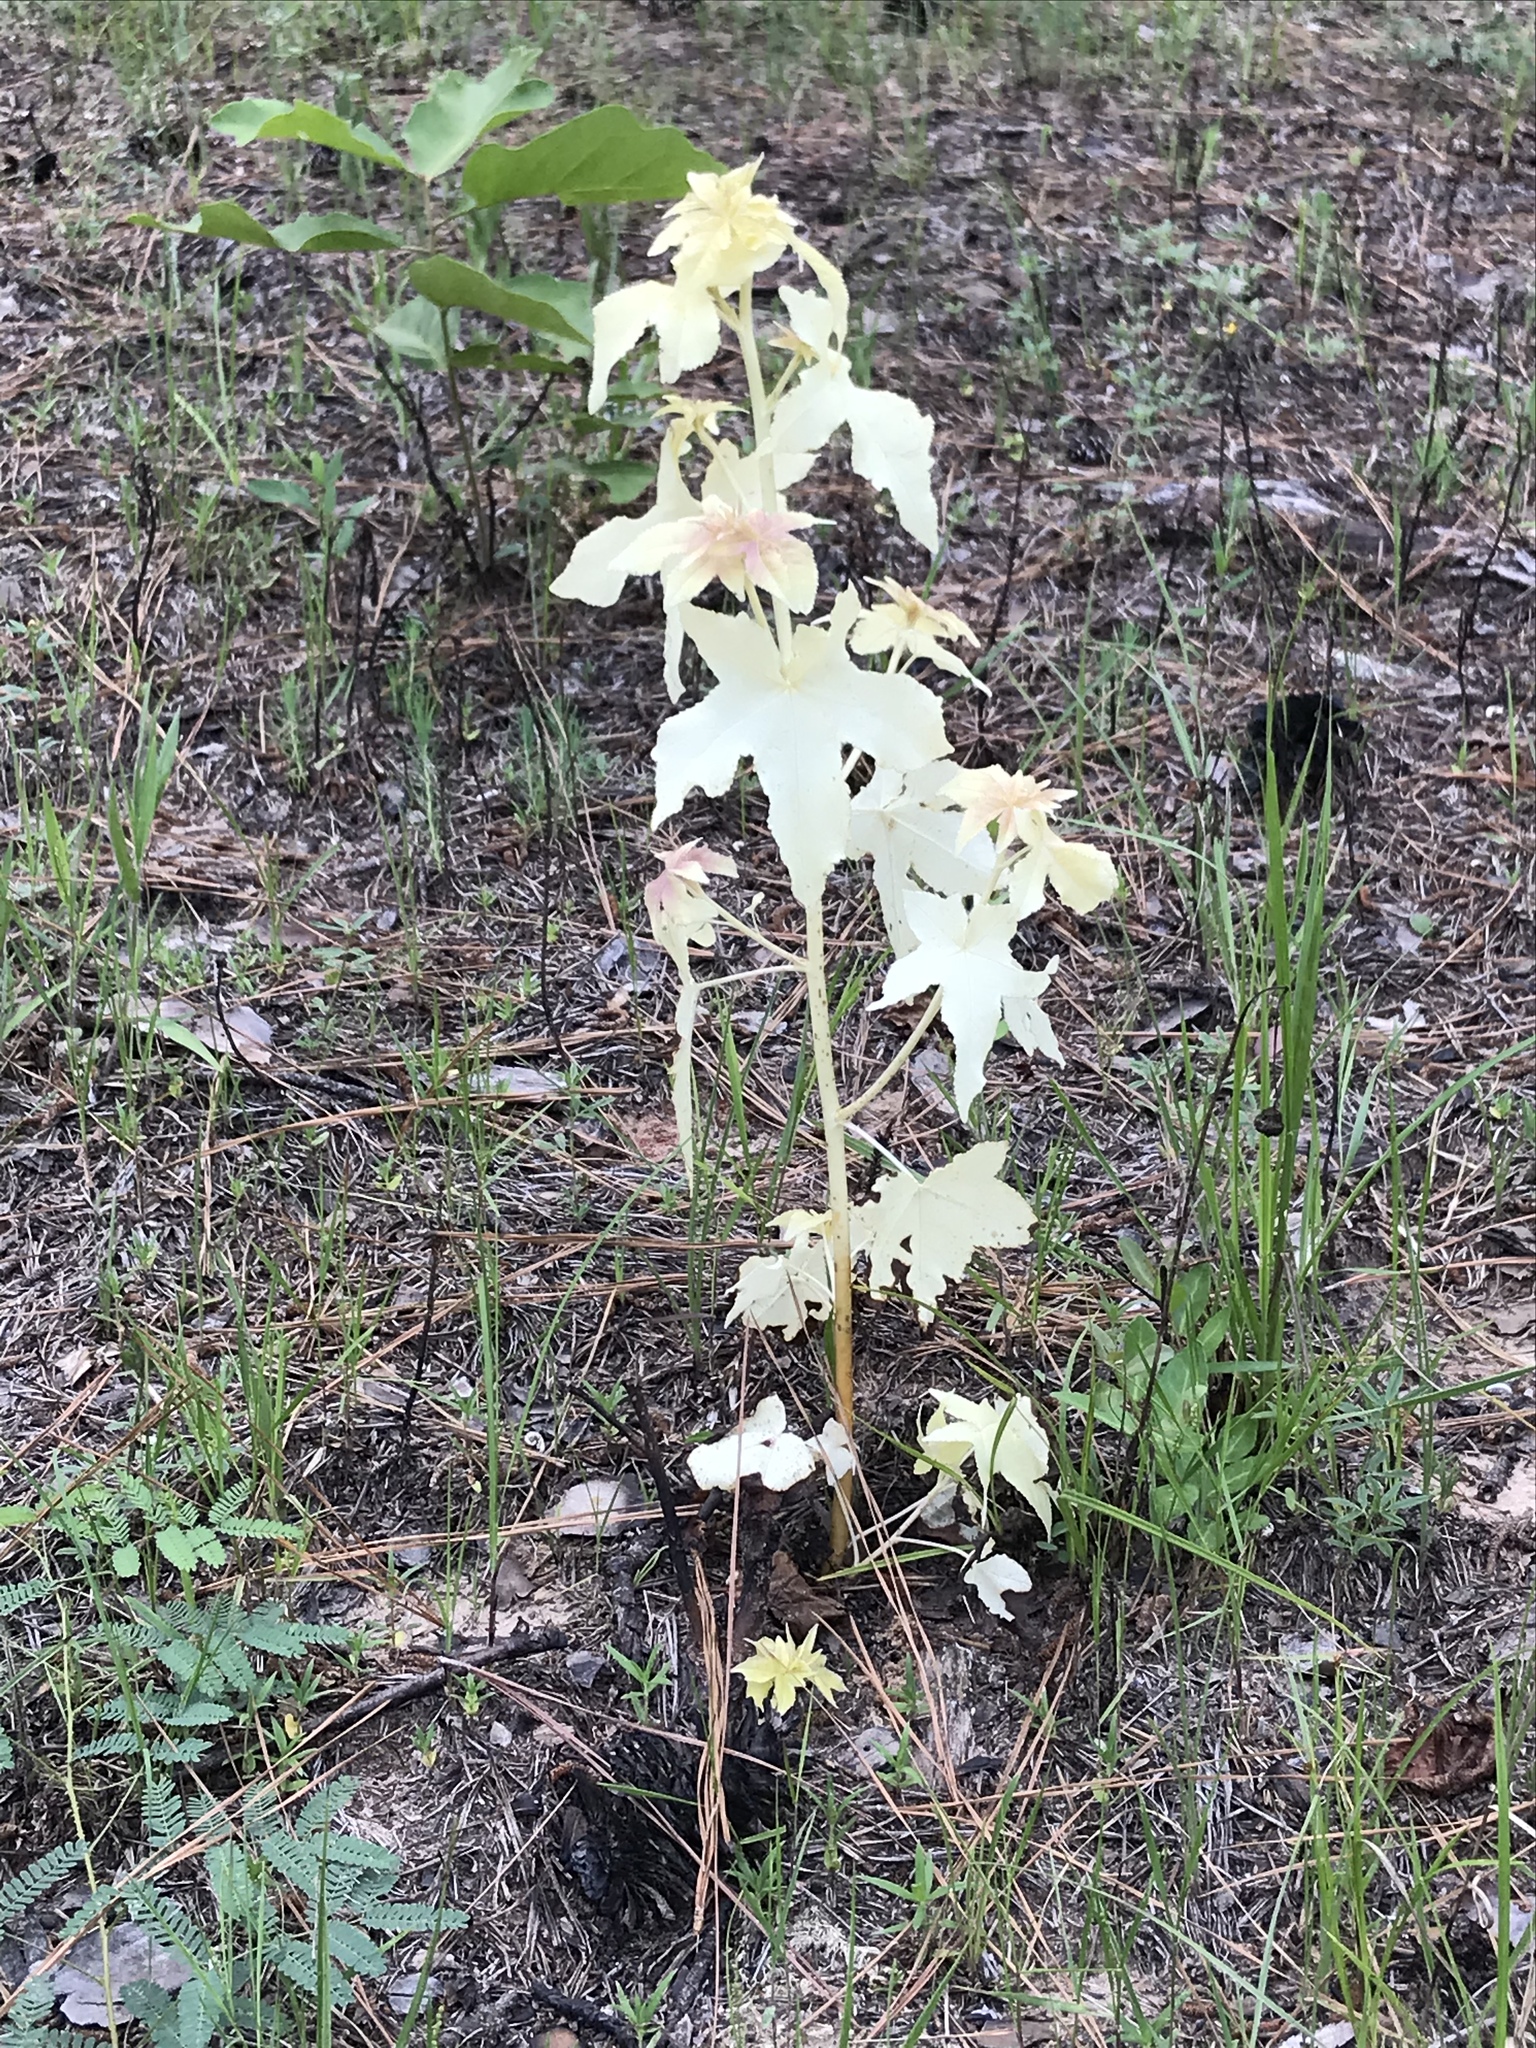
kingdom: Plantae
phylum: Tracheophyta
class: Magnoliopsida
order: Saxifragales
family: Altingiaceae
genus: Liquidambar
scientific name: Liquidambar styraciflua
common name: Sweet gum
